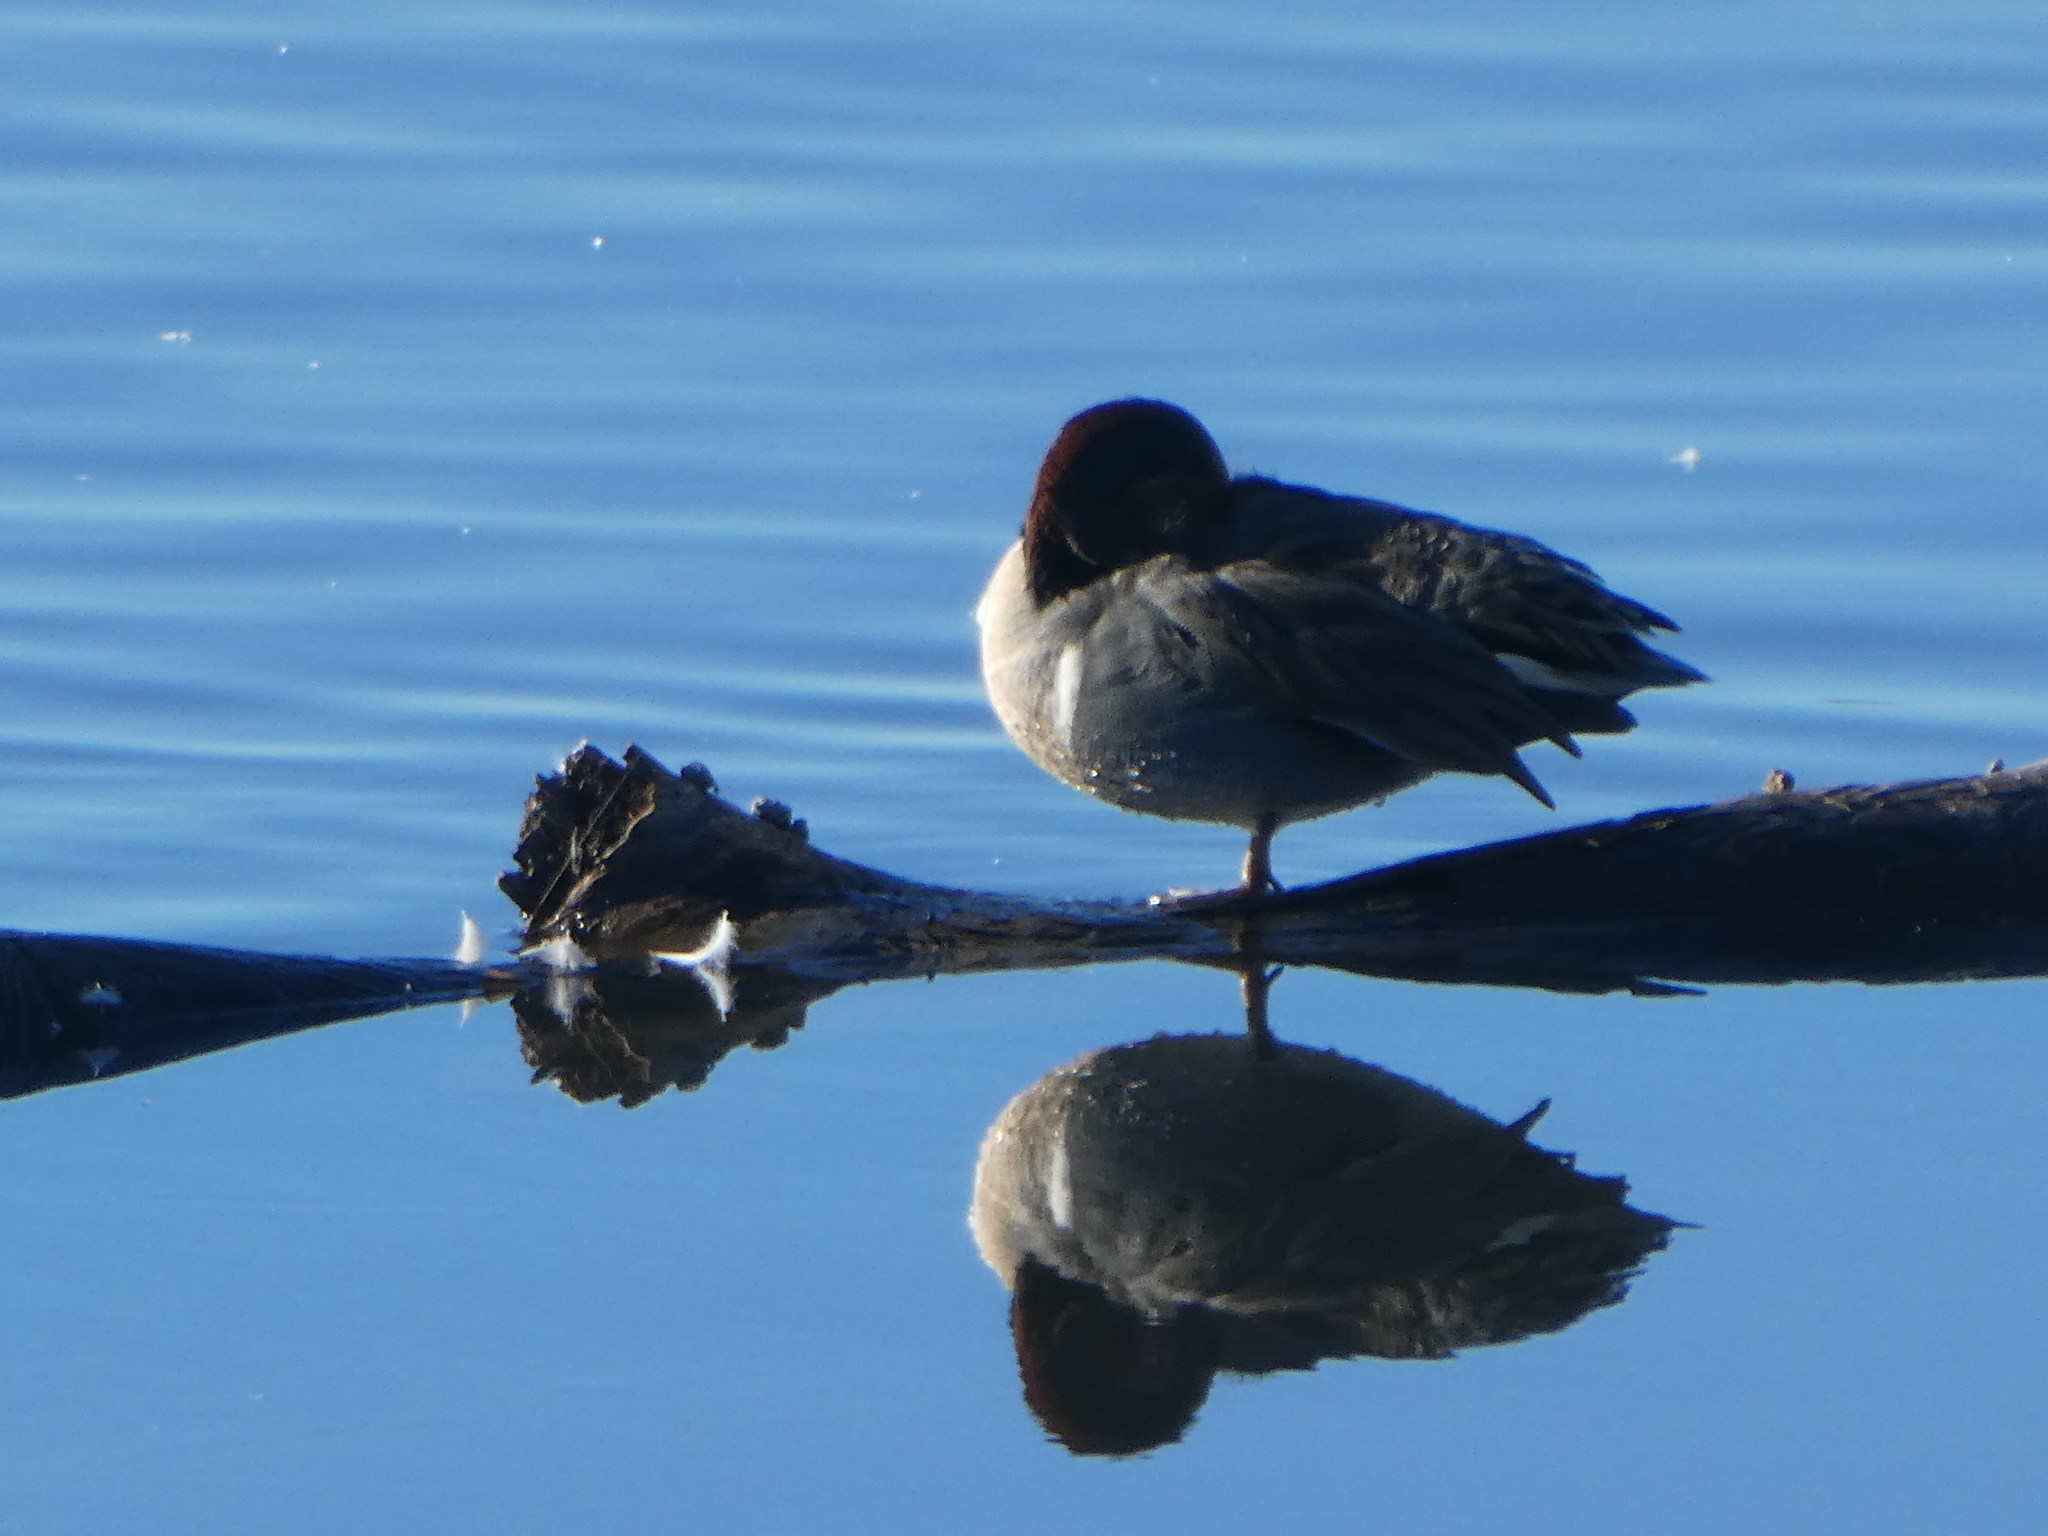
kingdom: Animalia
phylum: Chordata
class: Aves
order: Anseriformes
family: Anatidae
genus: Anas
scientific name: Anas crecca
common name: Eurasian teal
